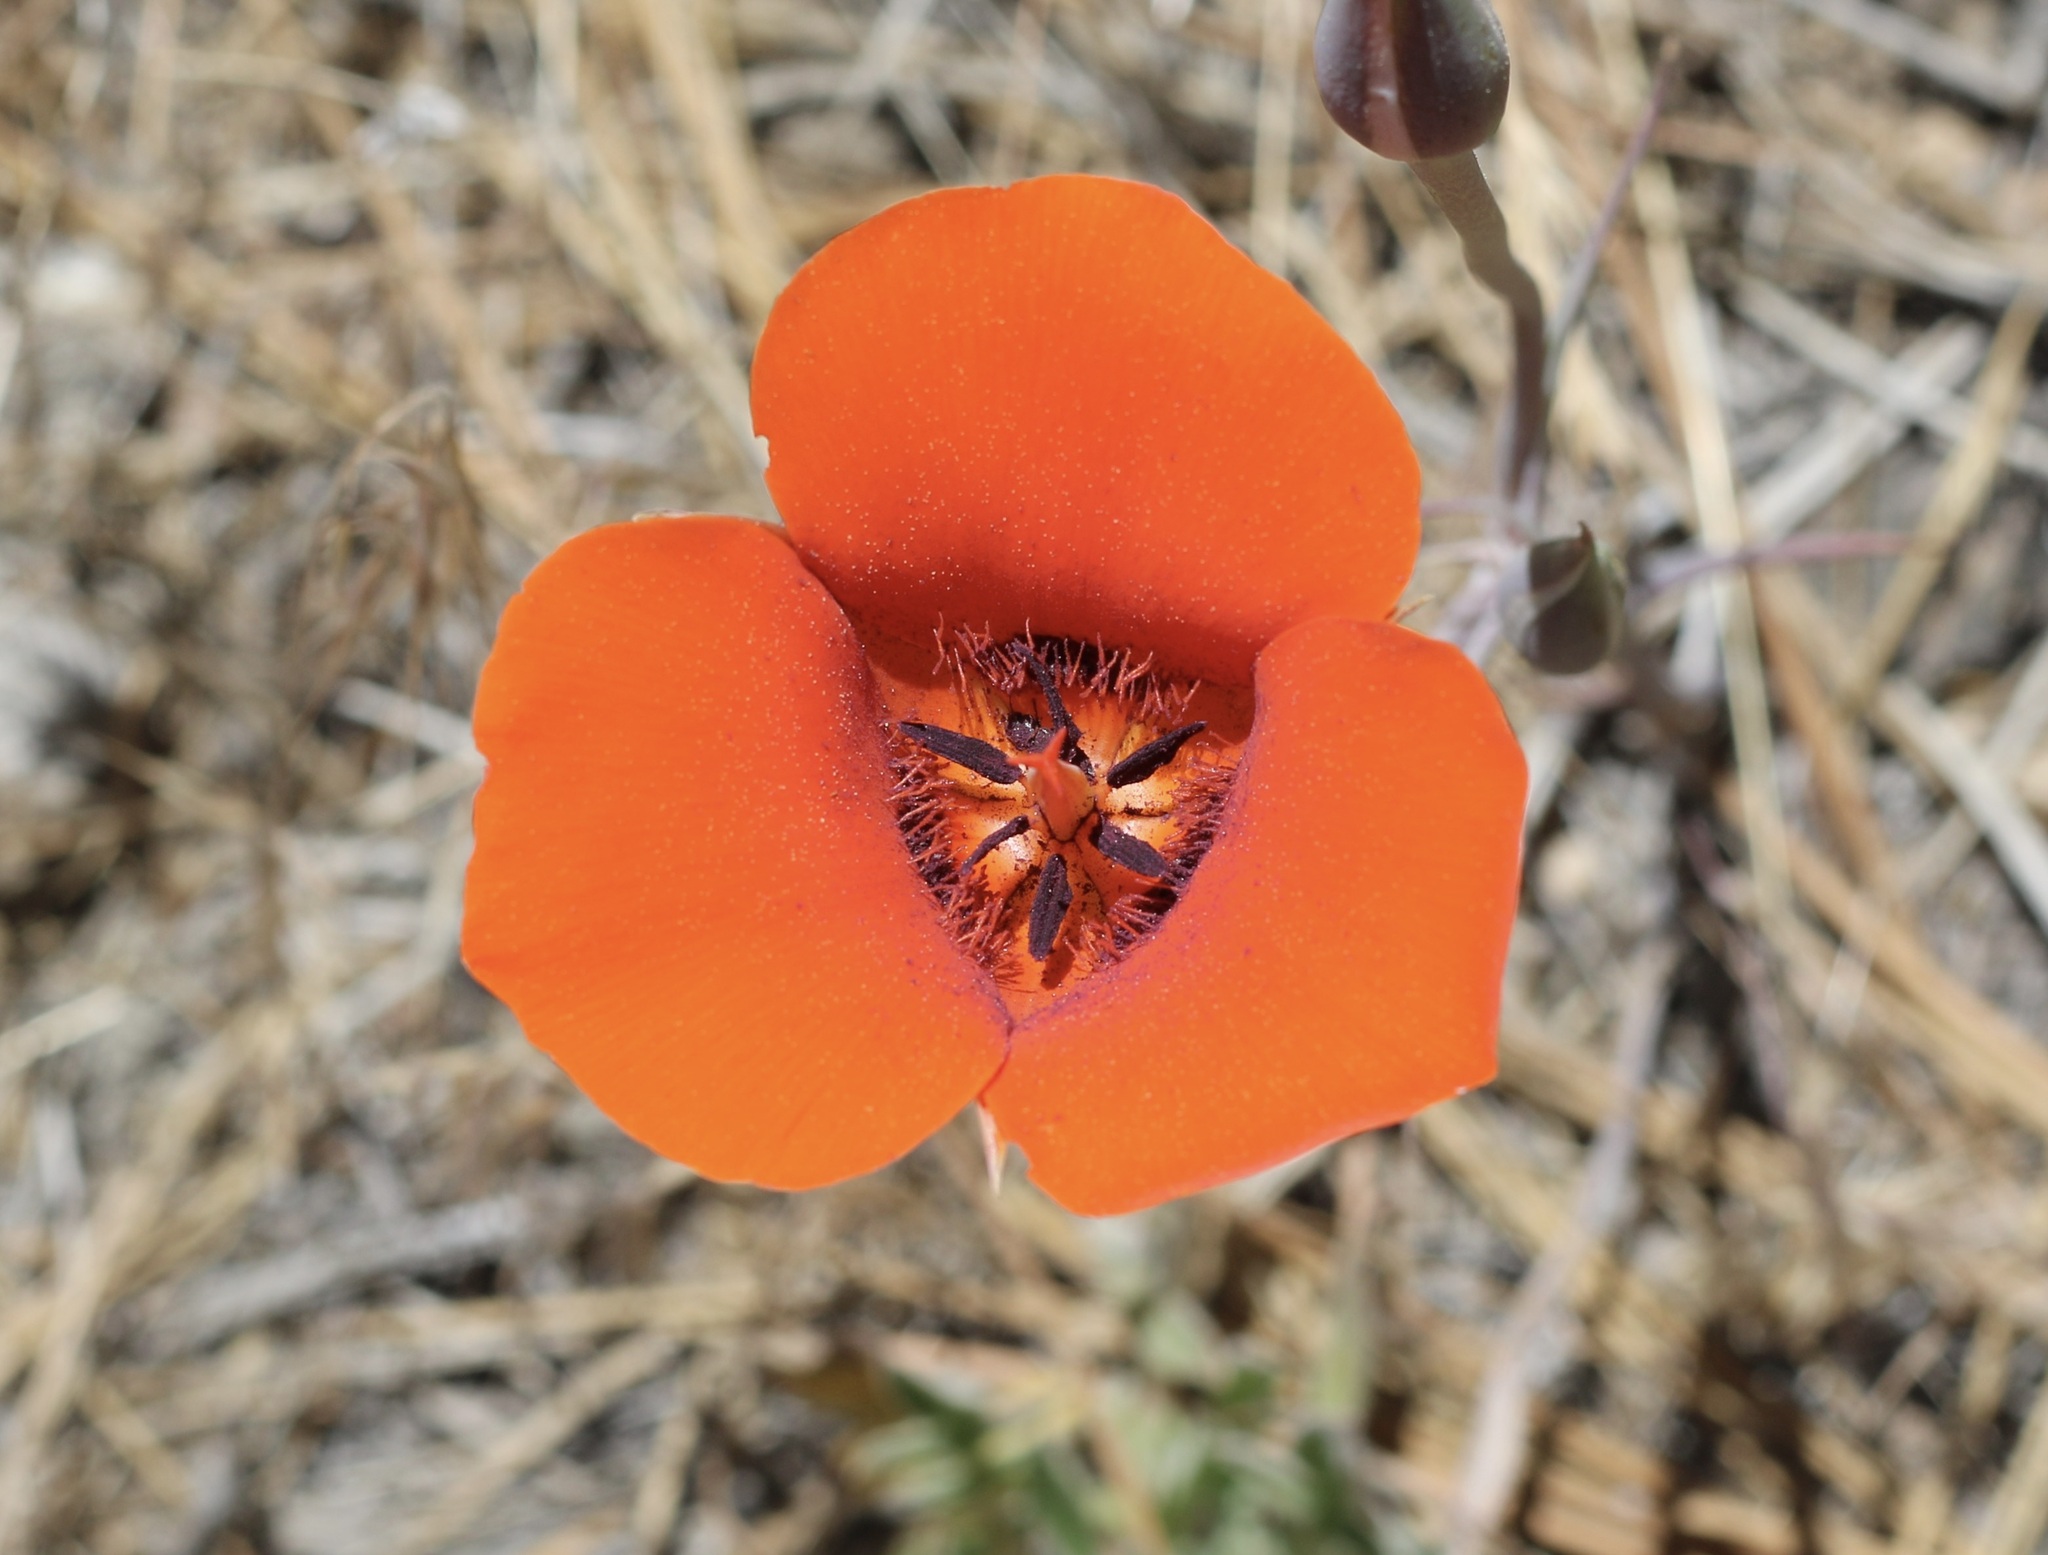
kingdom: Plantae
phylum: Tracheophyta
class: Liliopsida
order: Liliales
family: Liliaceae
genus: Calochortus
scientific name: Calochortus kennedyi
